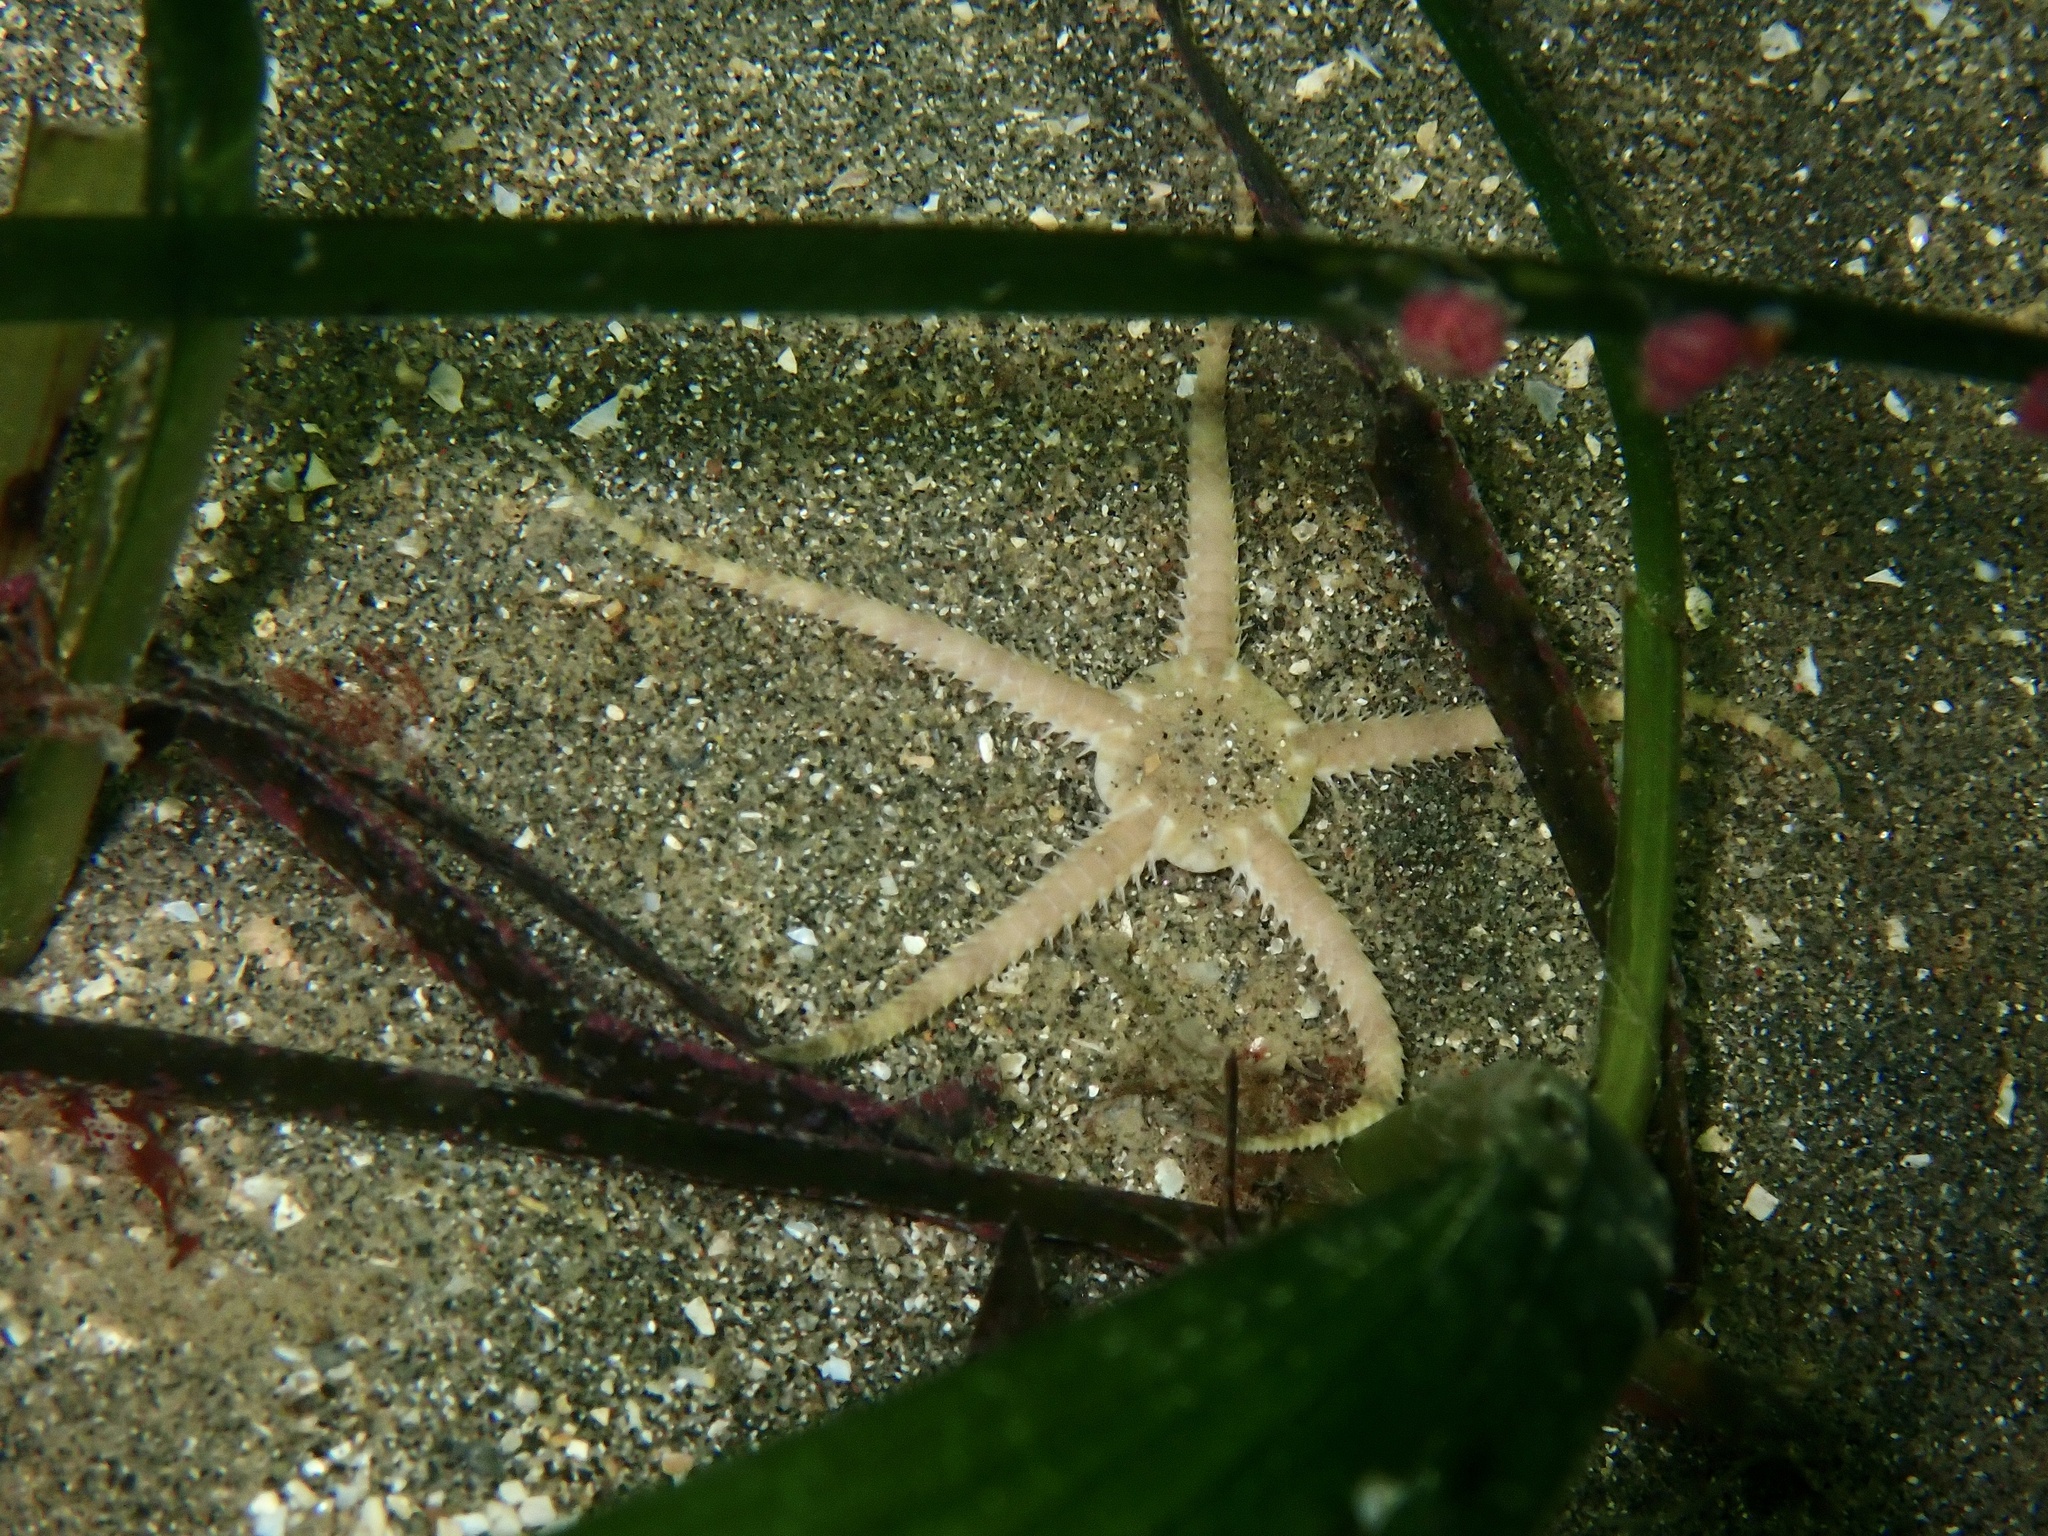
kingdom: Animalia
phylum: Echinodermata
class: Ophiuroidea
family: Ophiuridae
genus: Ophiura
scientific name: Ophiura albida
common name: Serpent's table brittlestar
